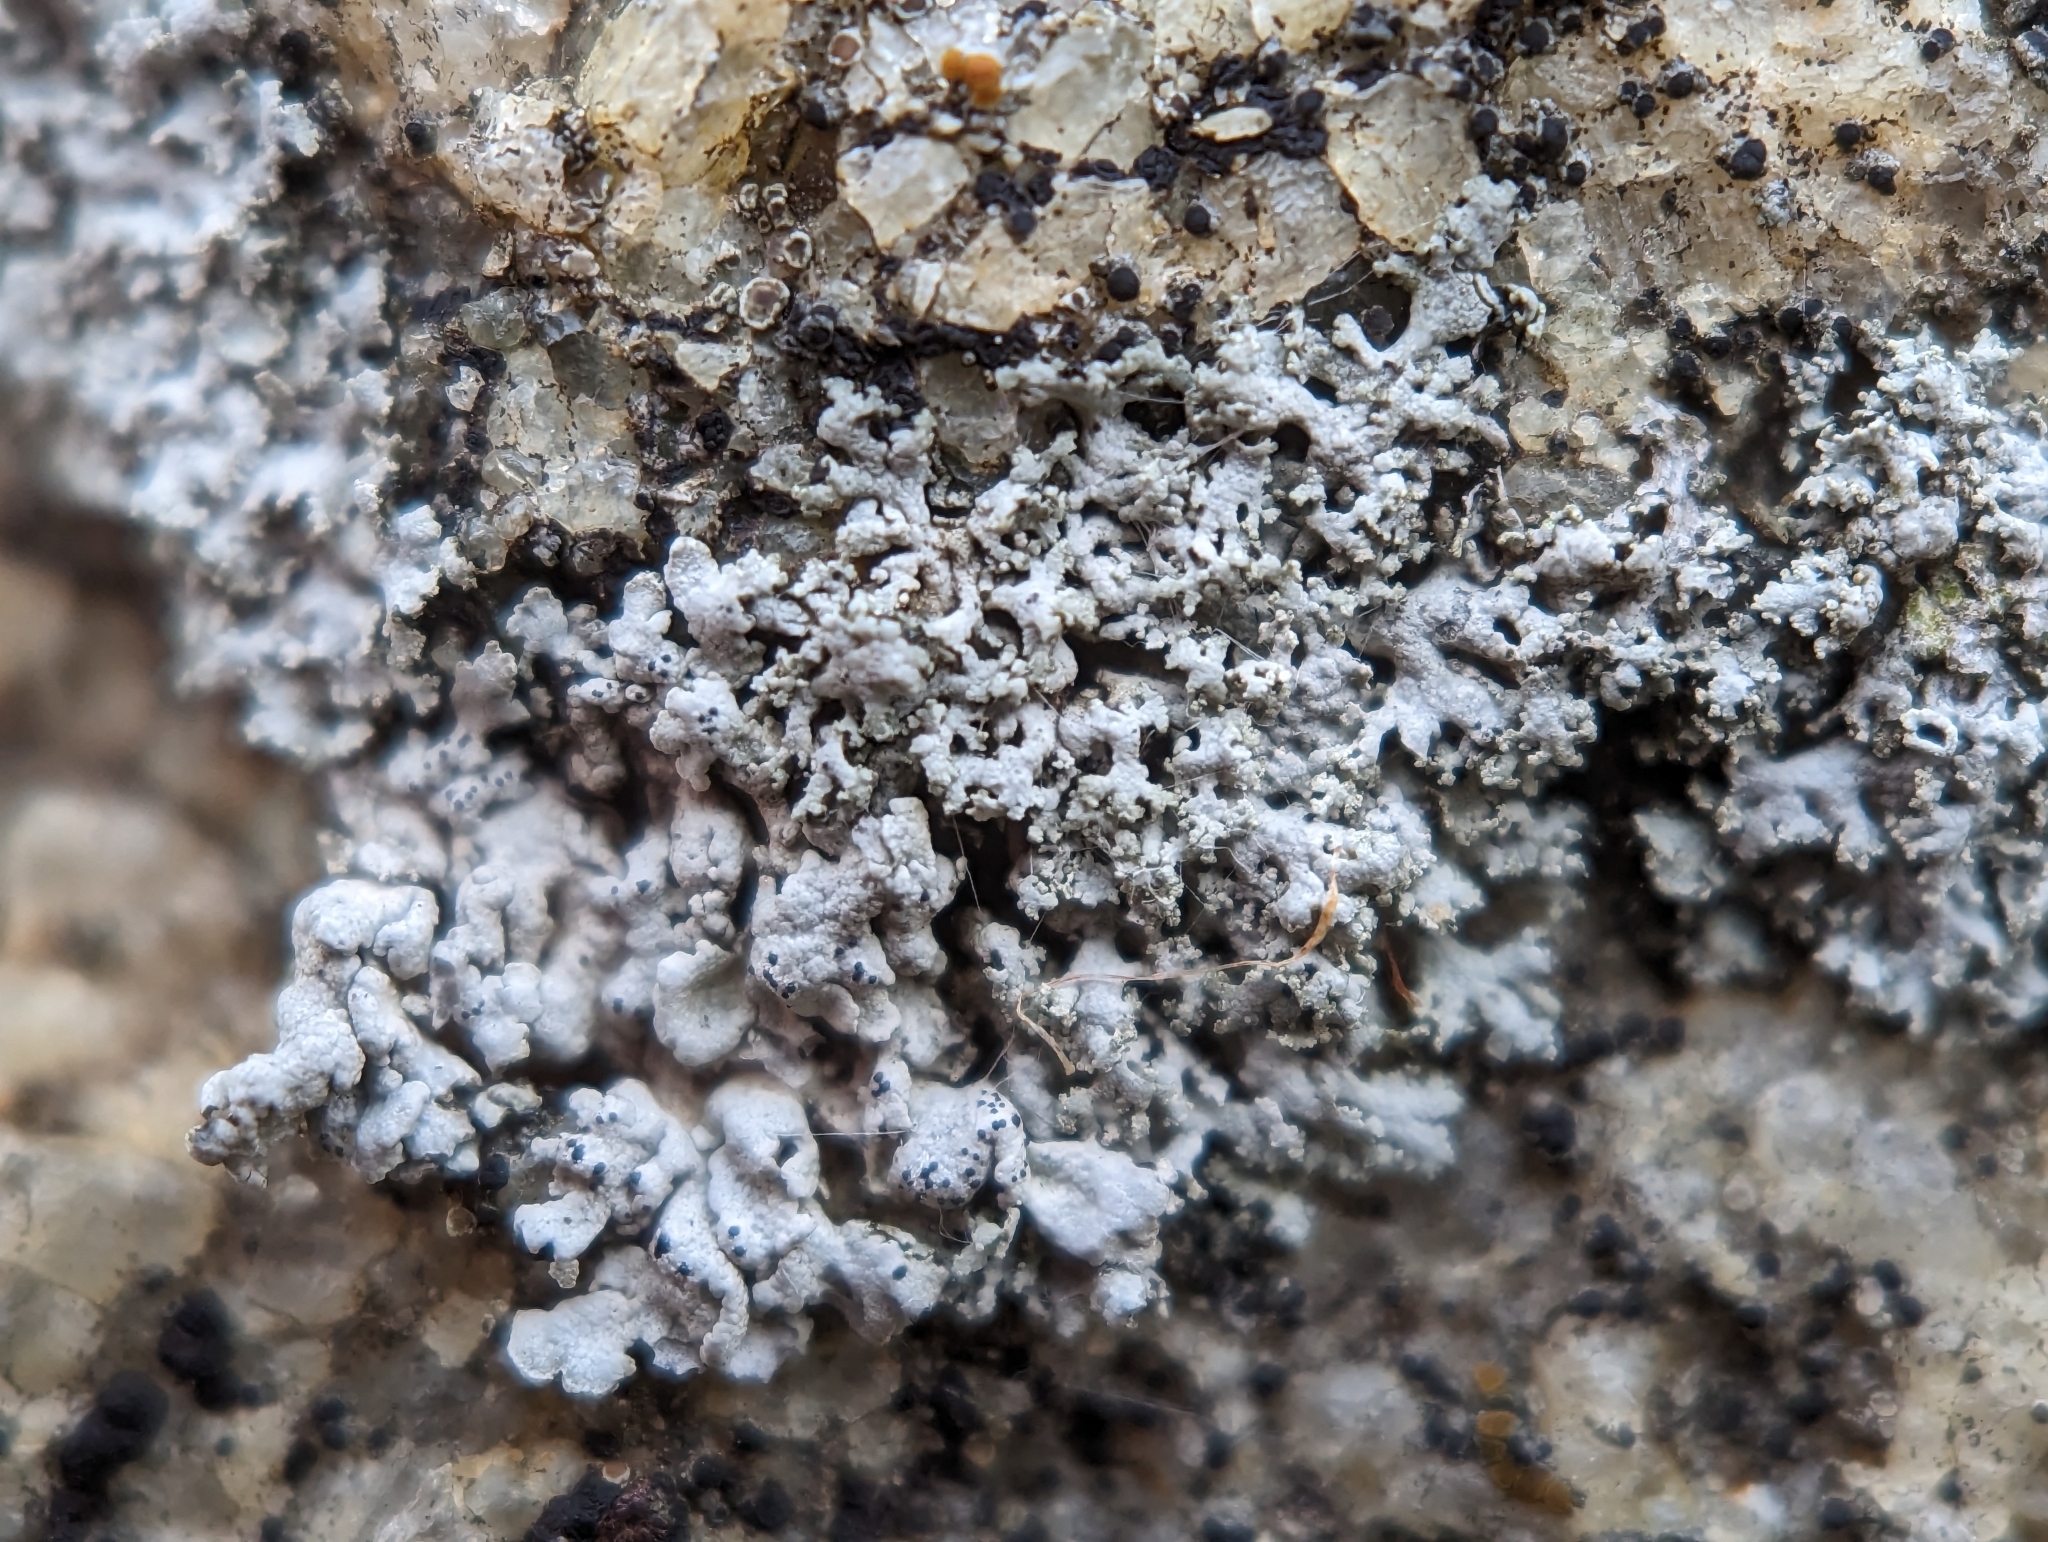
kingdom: Fungi
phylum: Ascomycota
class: Lecanoromycetes
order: Caliciales
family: Physciaceae
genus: Physcia
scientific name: Physcia thomsoniana
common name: Thomson's rosette lichen
